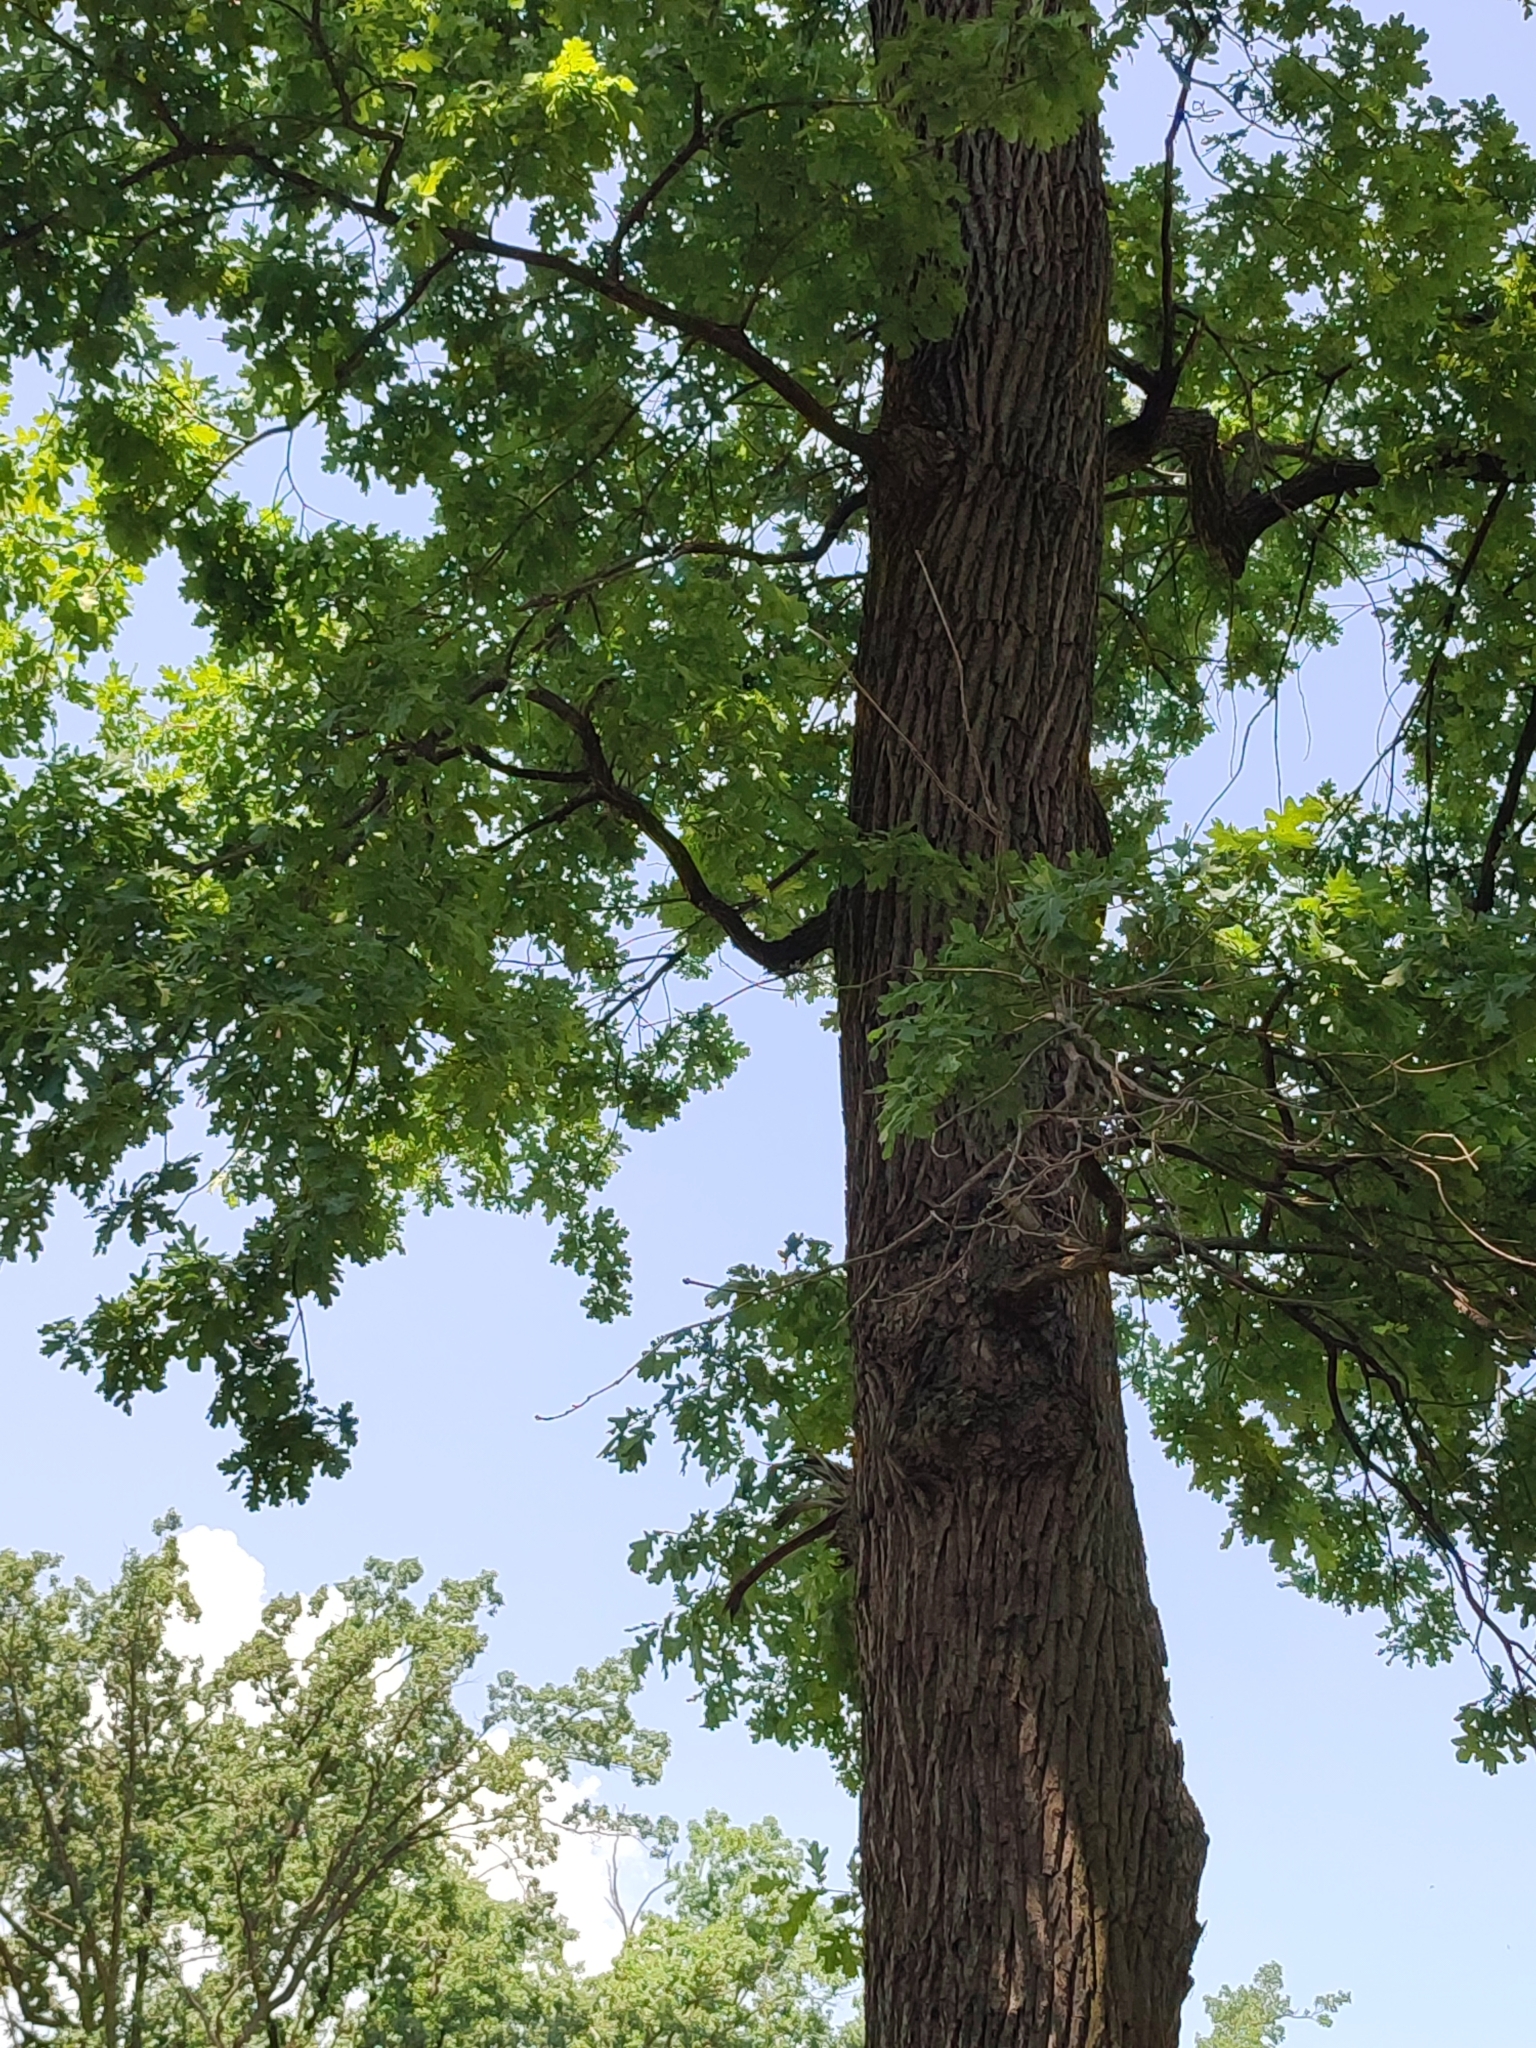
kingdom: Plantae
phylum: Tracheophyta
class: Magnoliopsida
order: Fagales
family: Fagaceae
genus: Quercus
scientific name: Quercus robur
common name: Pedunculate oak
